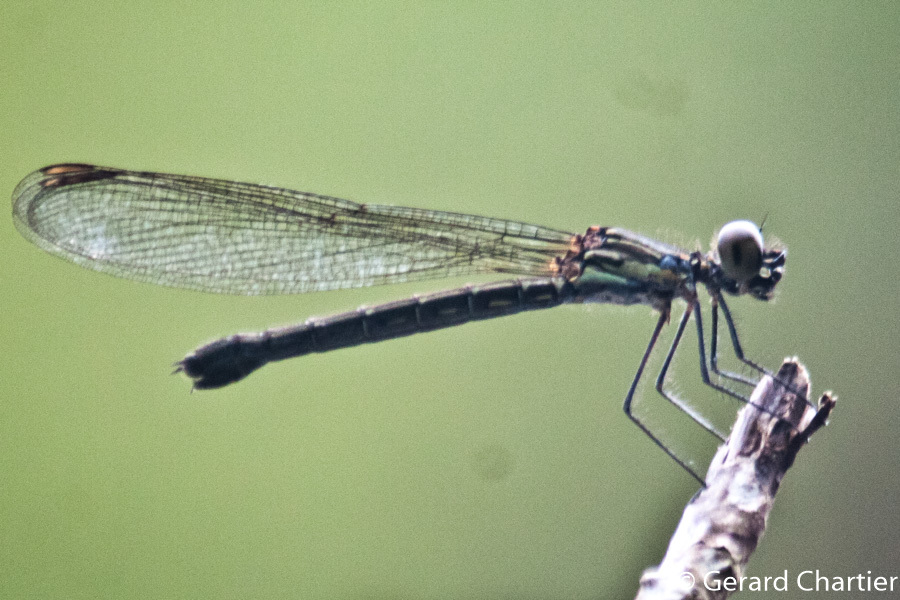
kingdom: Animalia
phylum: Arthropoda
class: Insecta
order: Odonata
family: Chlorocyphidae
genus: Heliocypha
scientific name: Heliocypha perforata
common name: Common blue jewel
